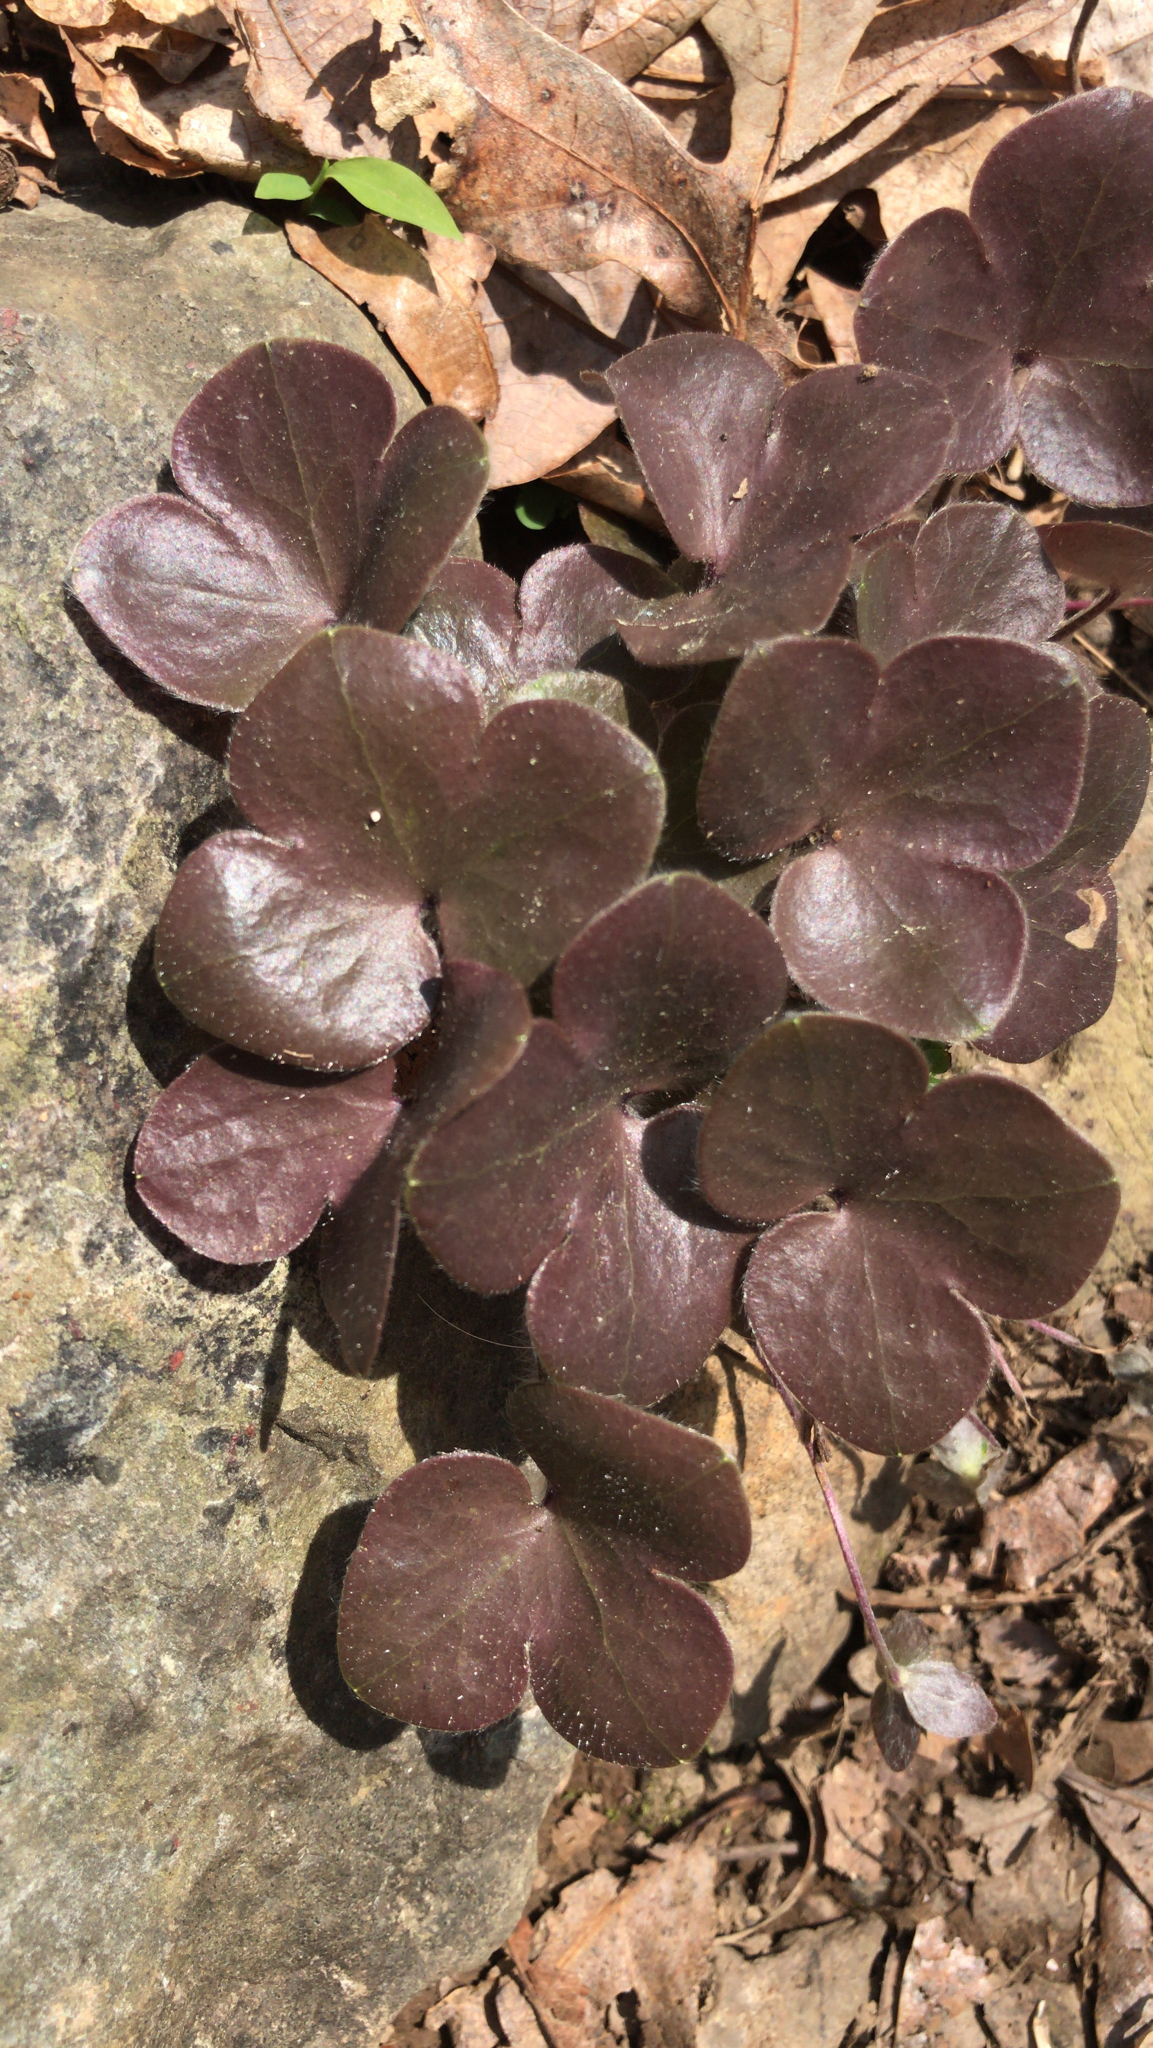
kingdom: Plantae
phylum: Tracheophyta
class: Magnoliopsida
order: Ranunculales
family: Ranunculaceae
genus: Hepatica
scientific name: Hepatica americana
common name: American hepatica
